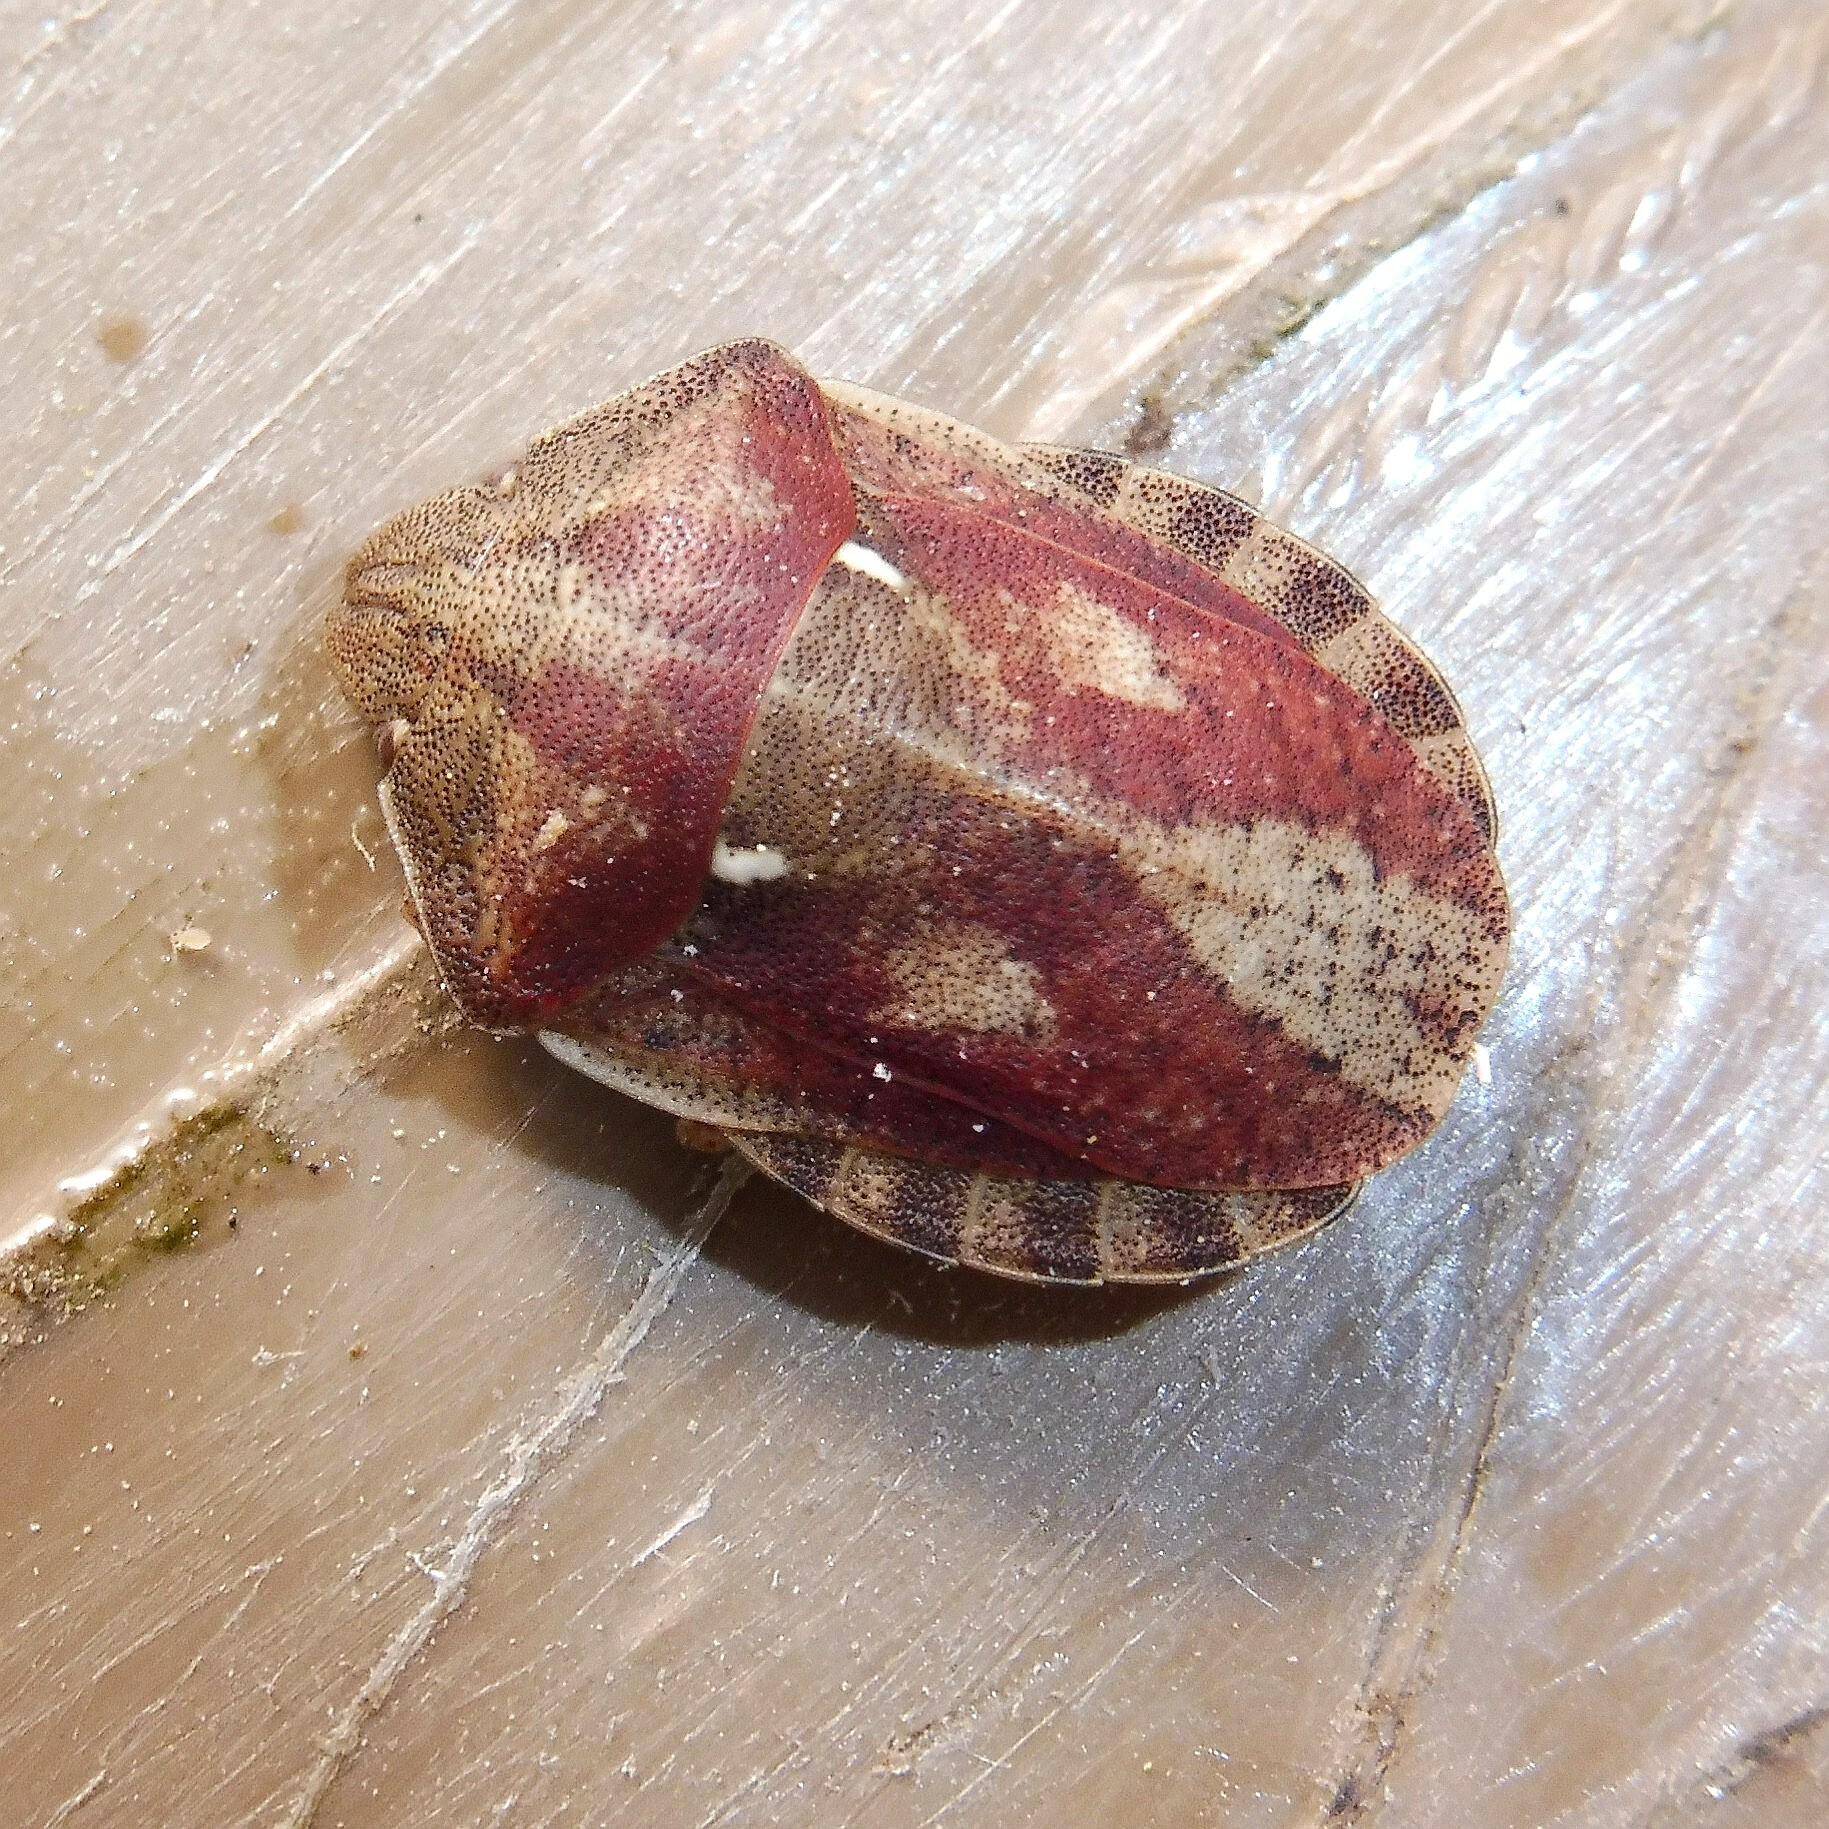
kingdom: Animalia
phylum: Arthropoda
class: Insecta
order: Hemiptera
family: Scutelleridae
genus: Eurygaster
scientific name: Eurygaster testudinaria
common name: Tortoise bug
